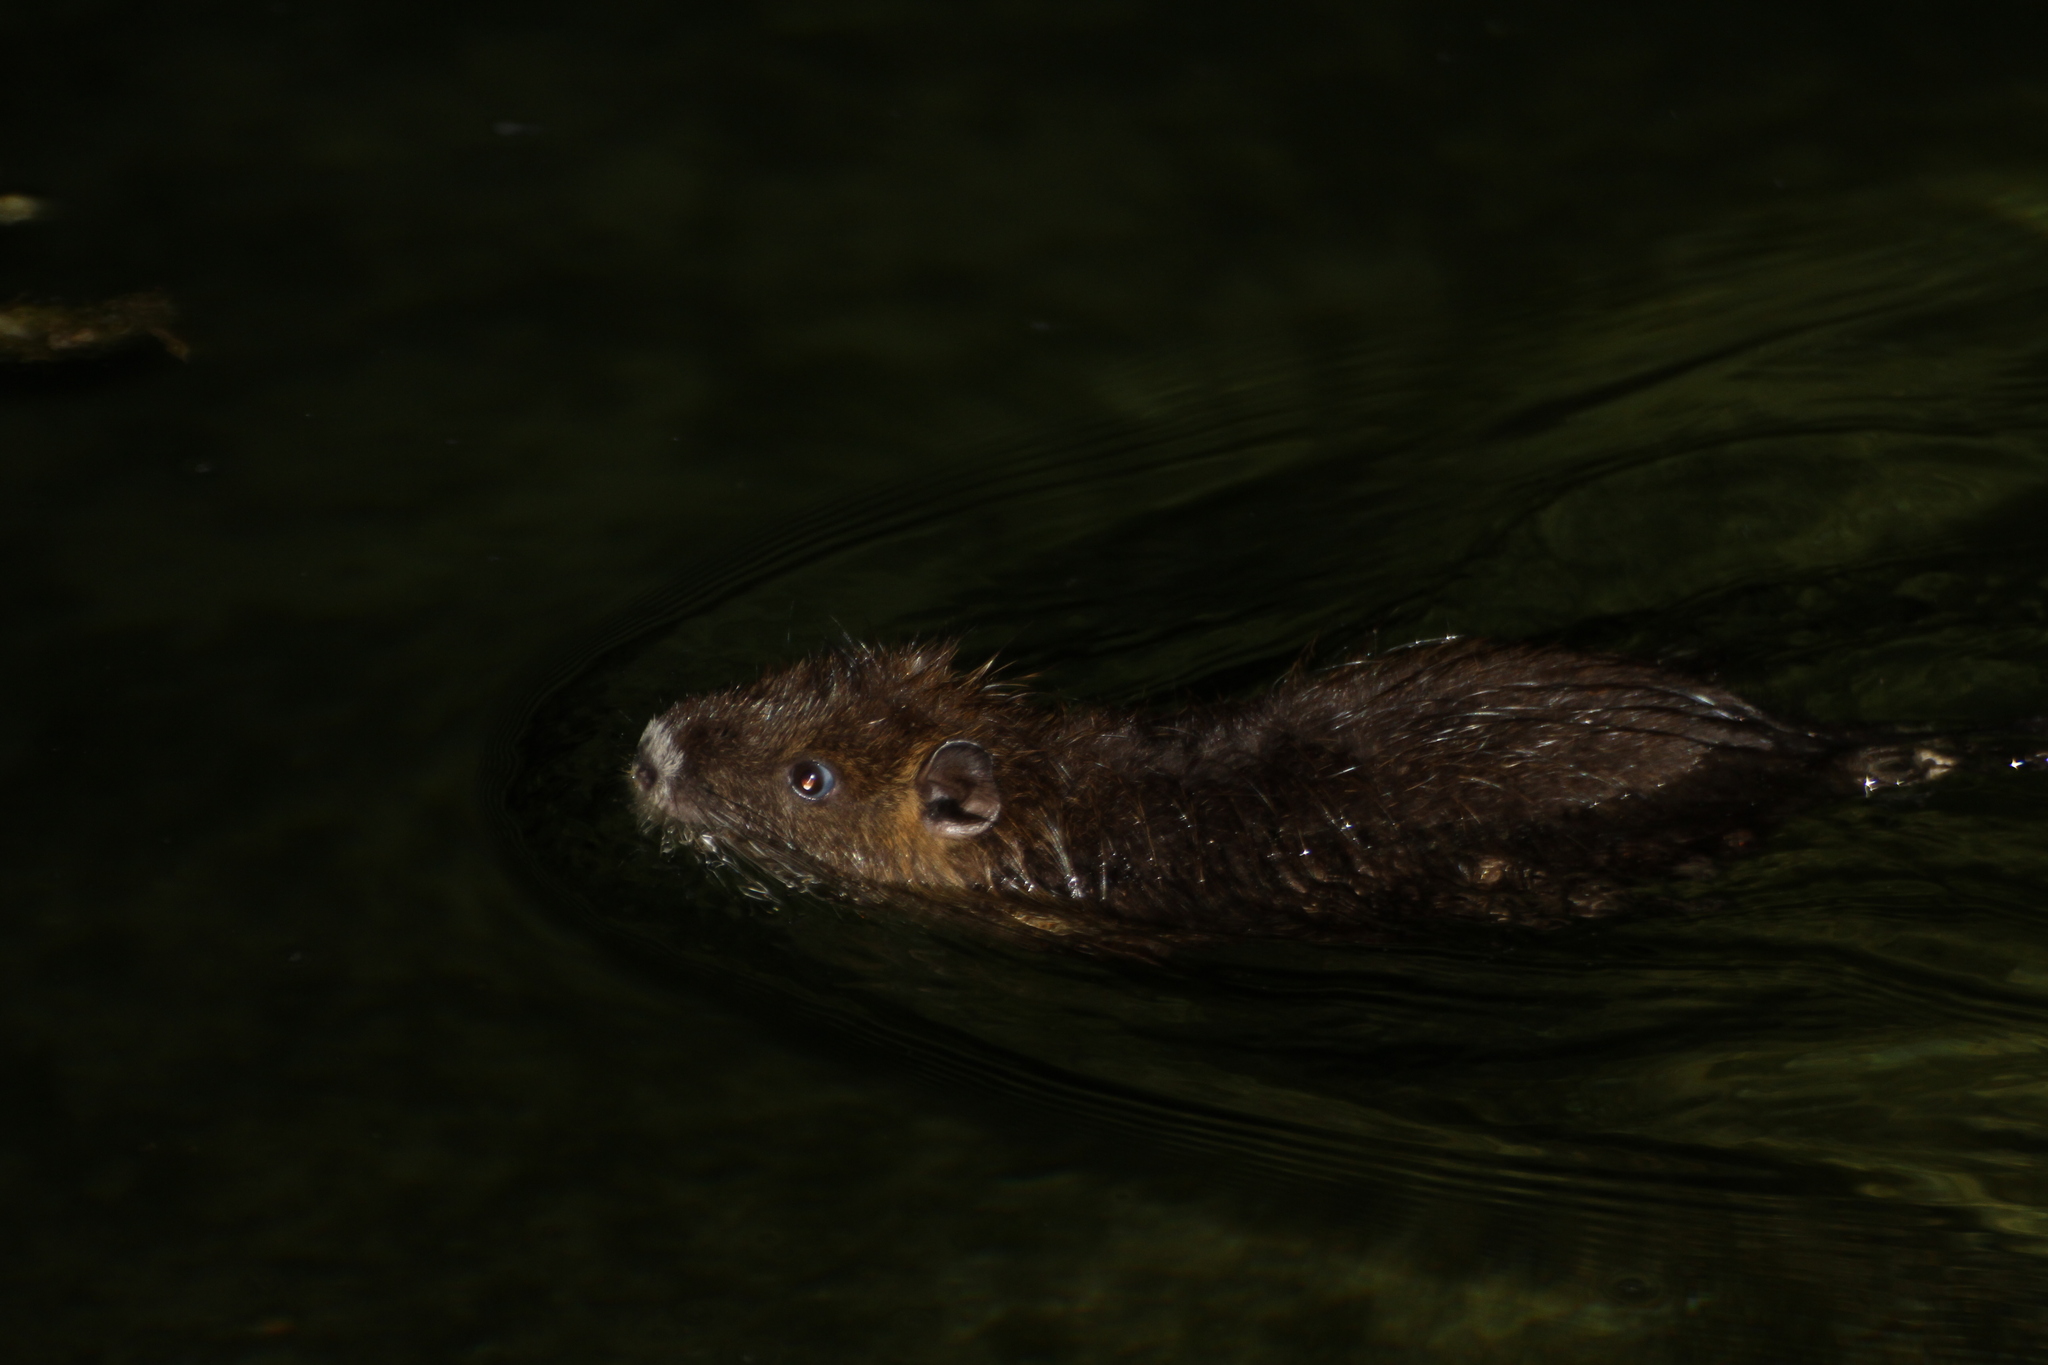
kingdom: Animalia
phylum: Chordata
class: Mammalia
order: Rodentia
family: Myocastoridae
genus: Myocastor
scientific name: Myocastor coypus
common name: Coypu
